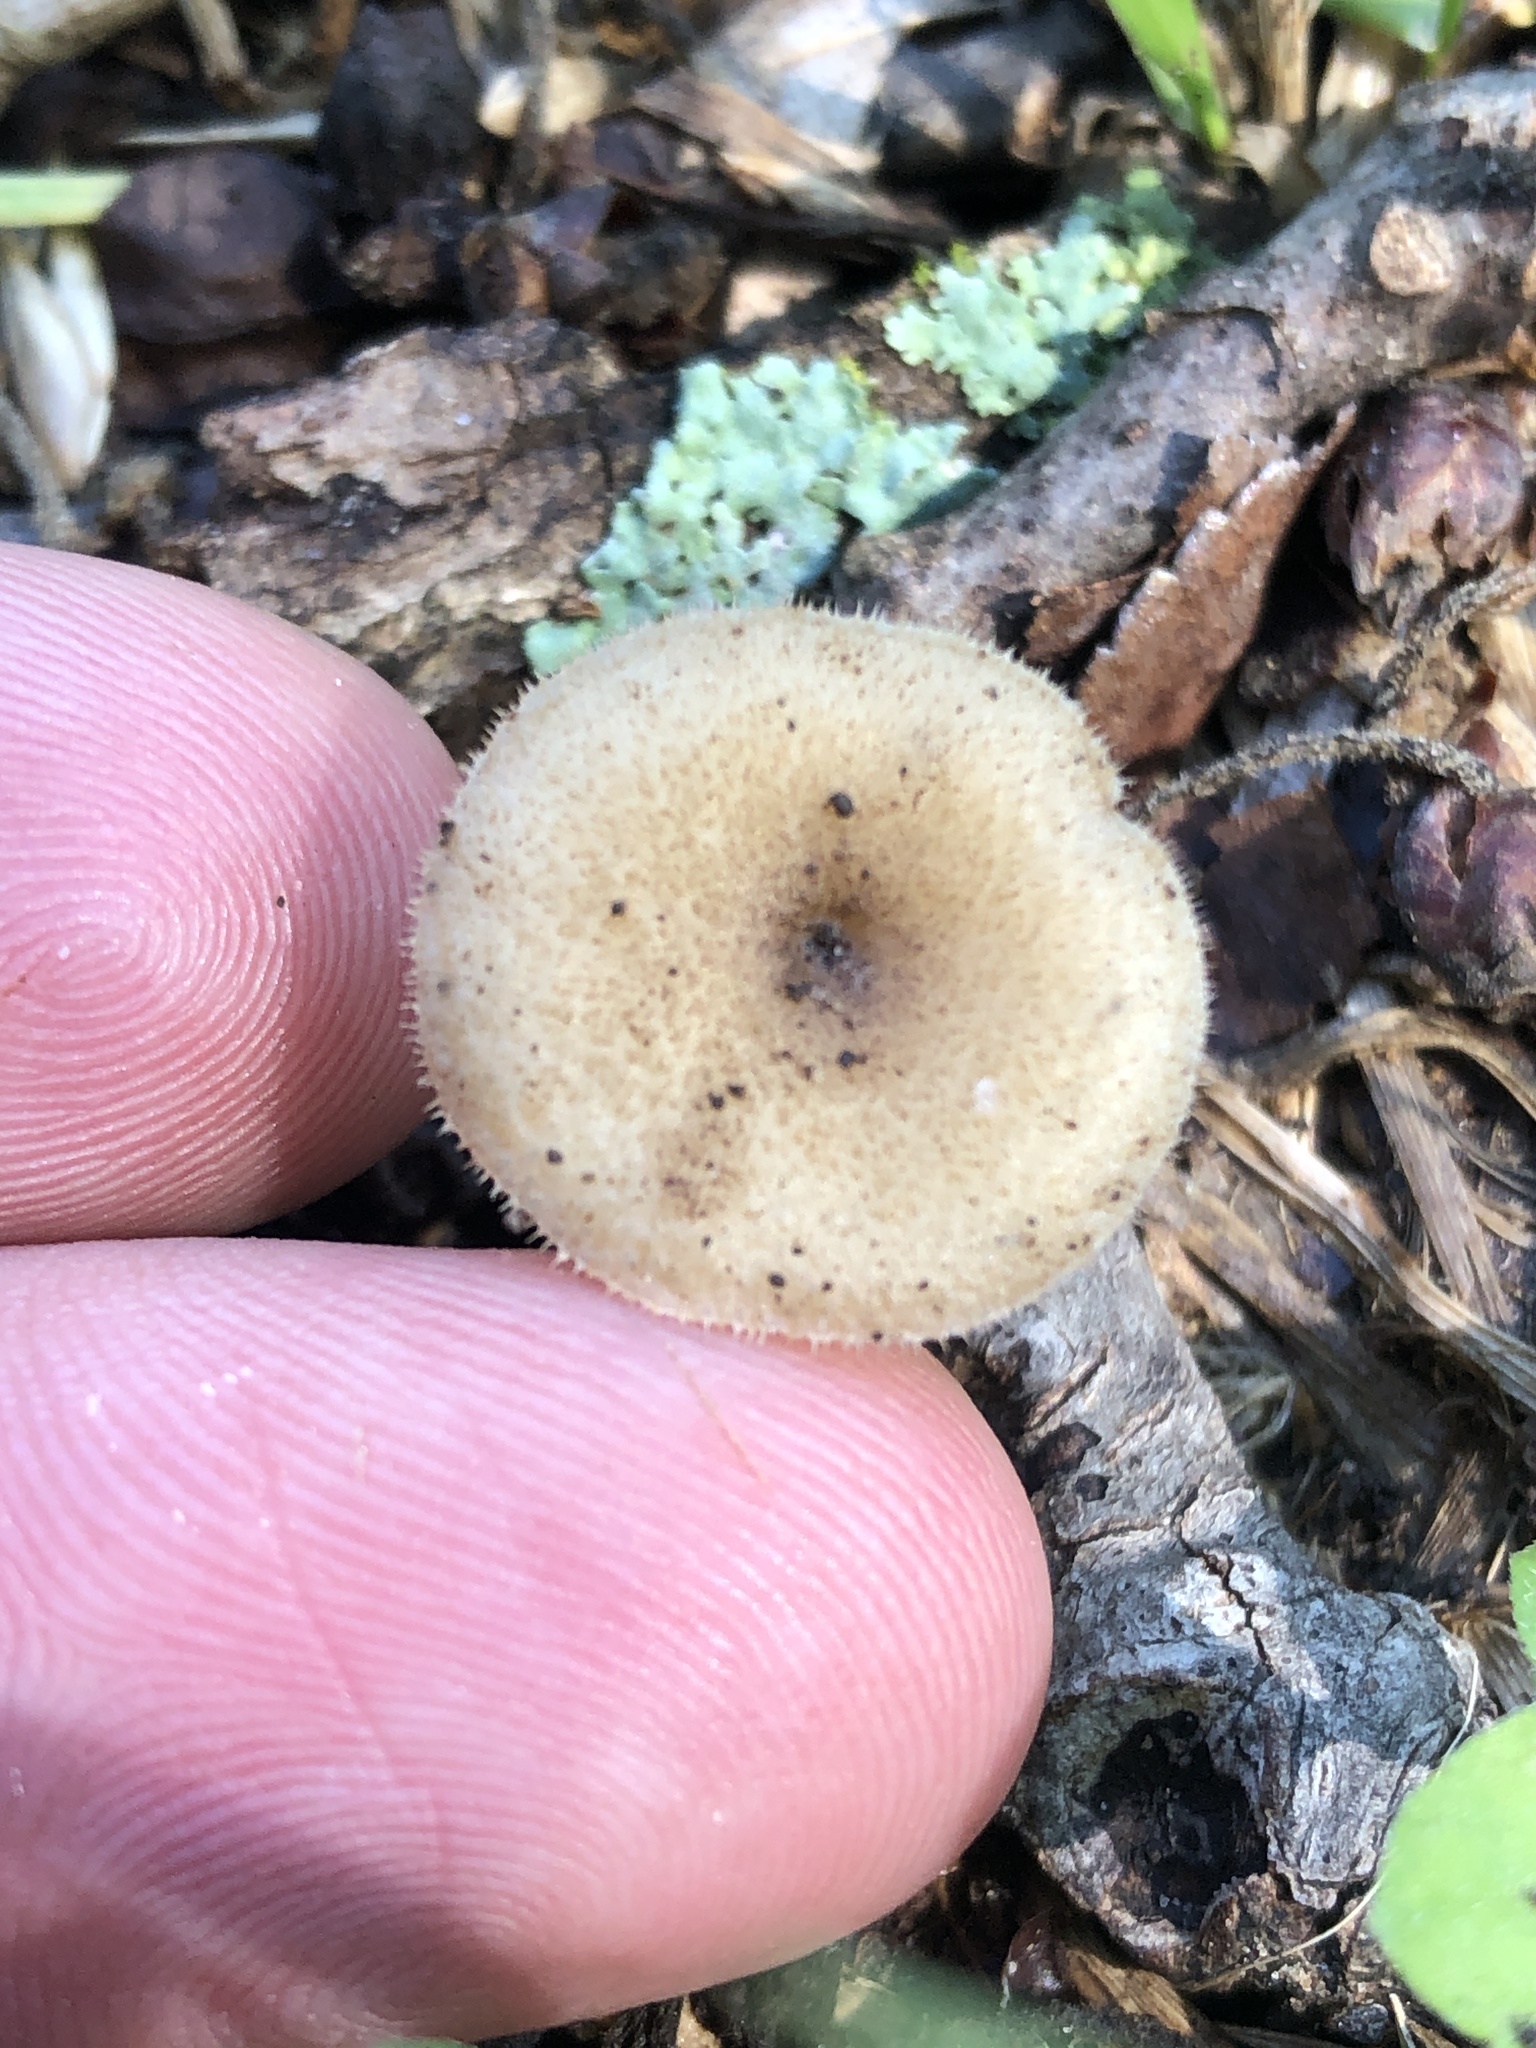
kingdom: Fungi
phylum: Basidiomycota
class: Agaricomycetes
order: Polyporales
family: Polyporaceae
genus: Lentinus
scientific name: Lentinus arcularius
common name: Spring polypore
